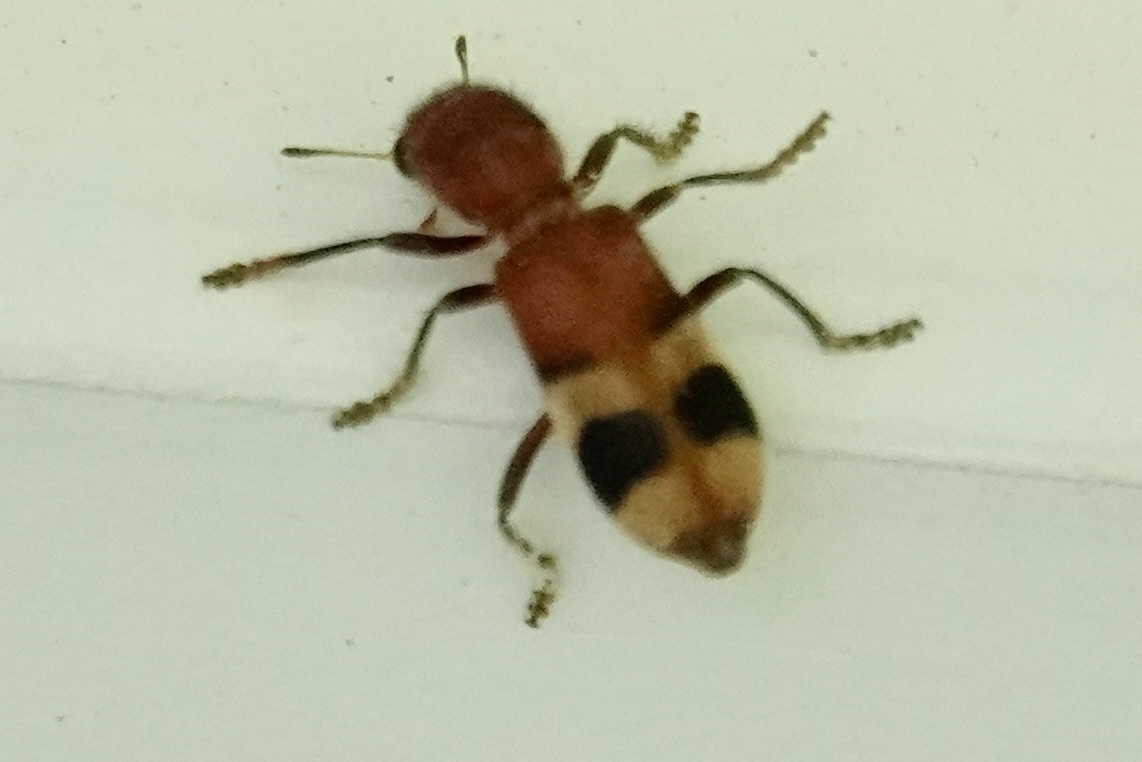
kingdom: Animalia
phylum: Arthropoda
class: Insecta
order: Coleoptera
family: Cleridae
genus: Enoclerus
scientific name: Enoclerus rosmarus
